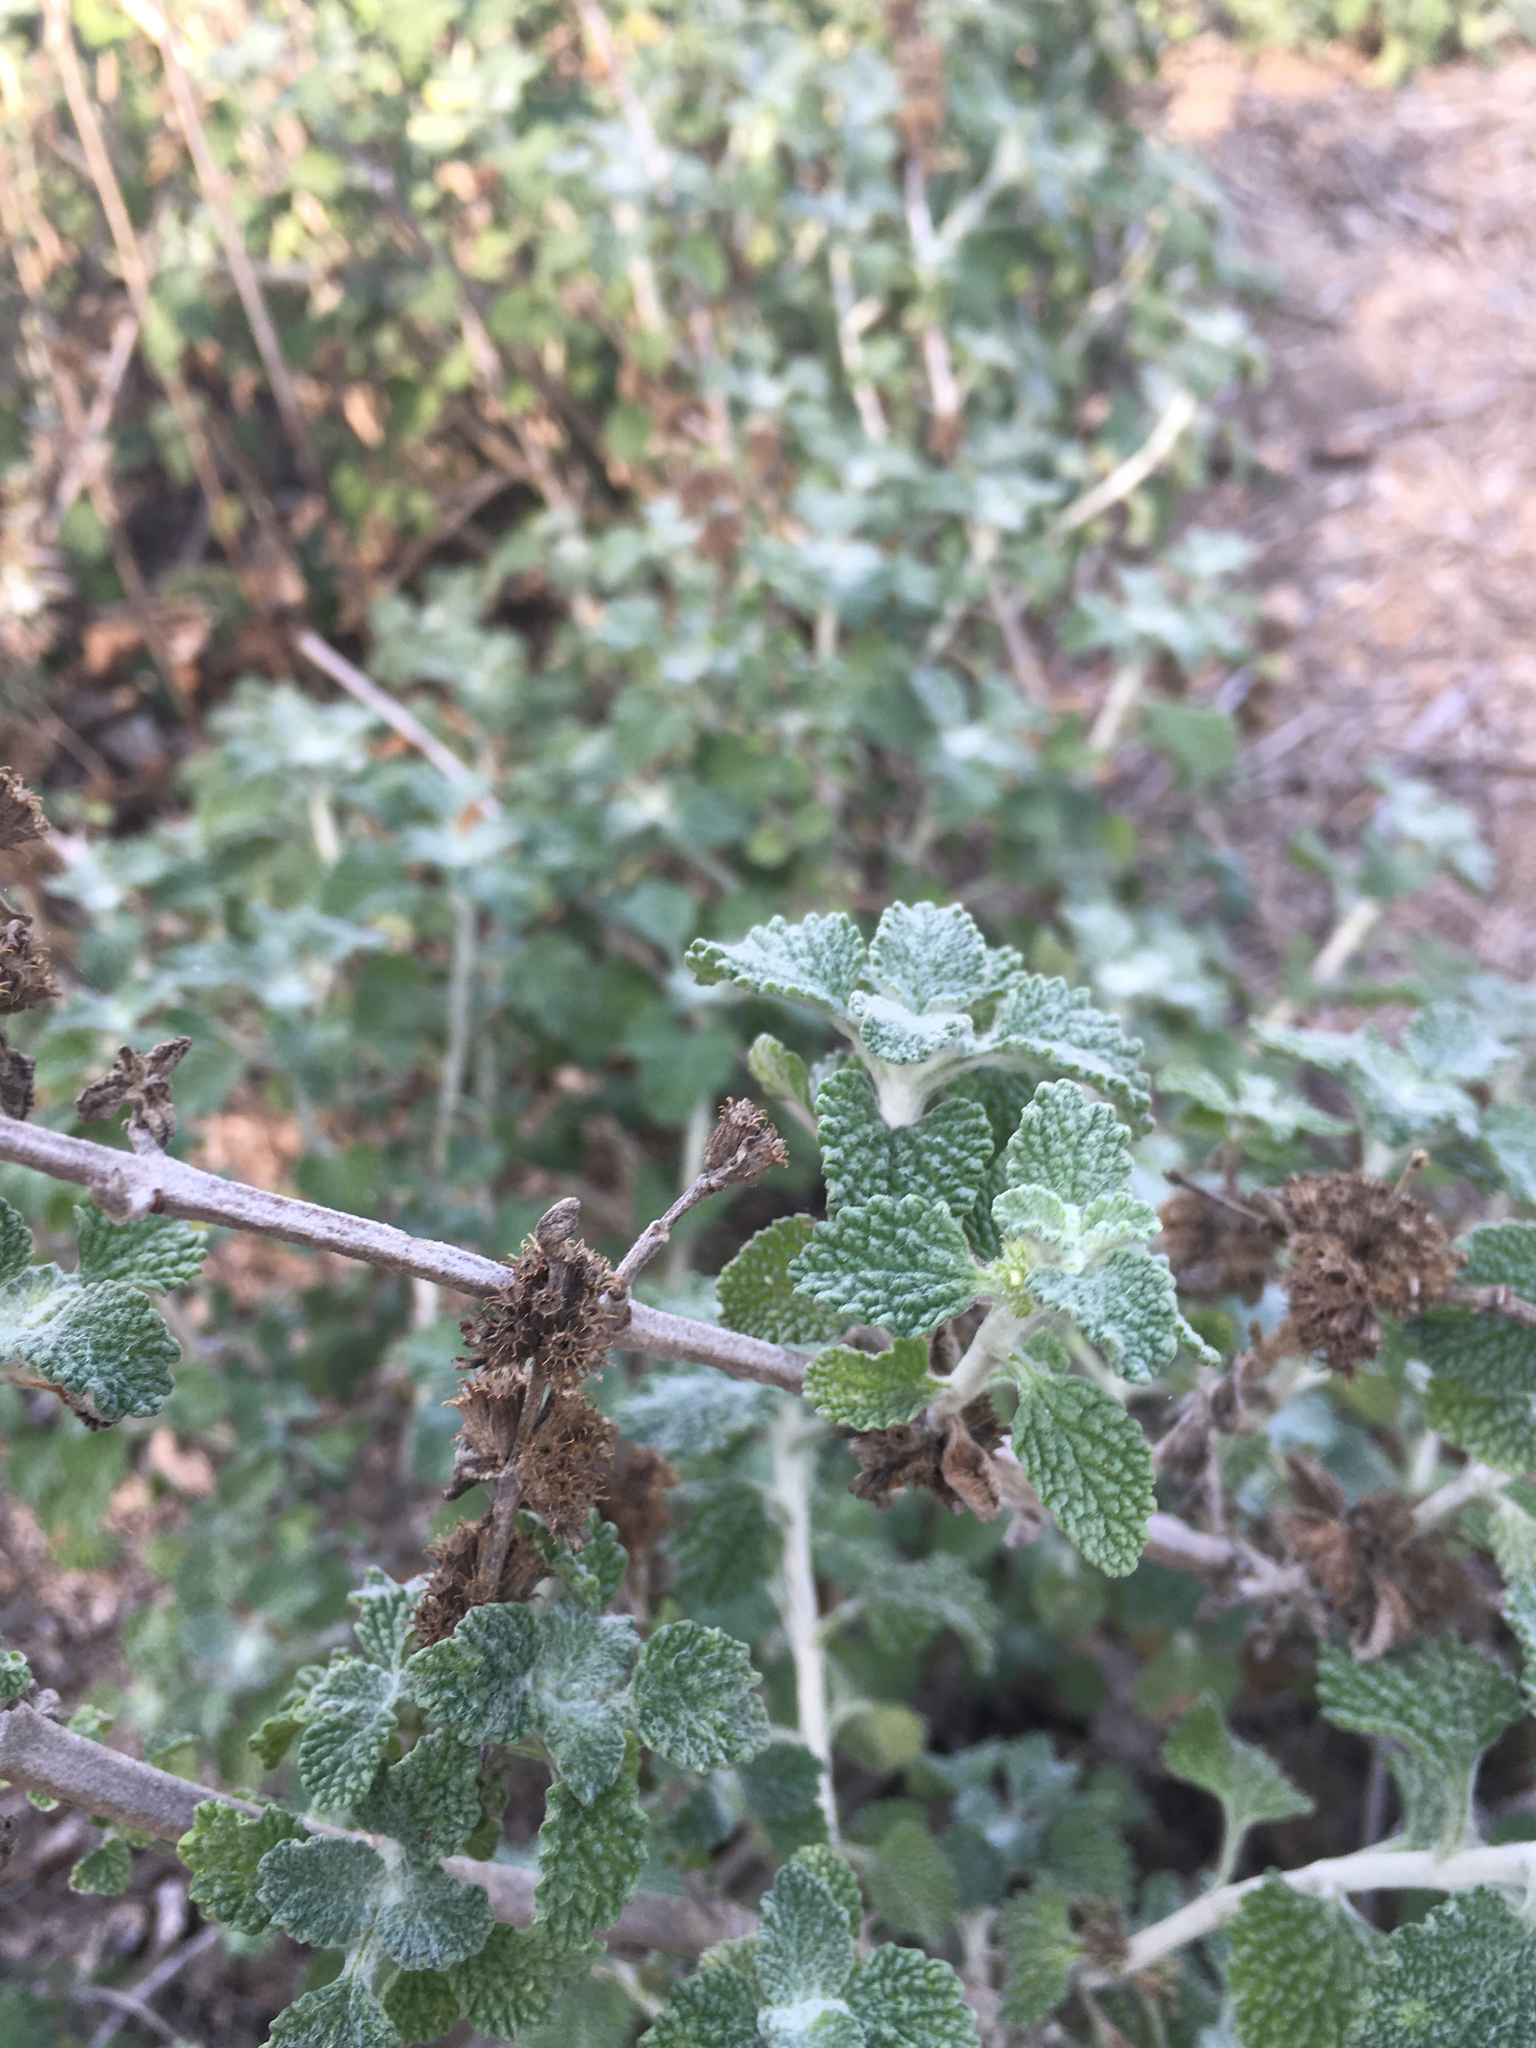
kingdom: Plantae
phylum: Tracheophyta
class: Magnoliopsida
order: Lamiales
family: Lamiaceae
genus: Marrubium
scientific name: Marrubium vulgare
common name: Horehound
